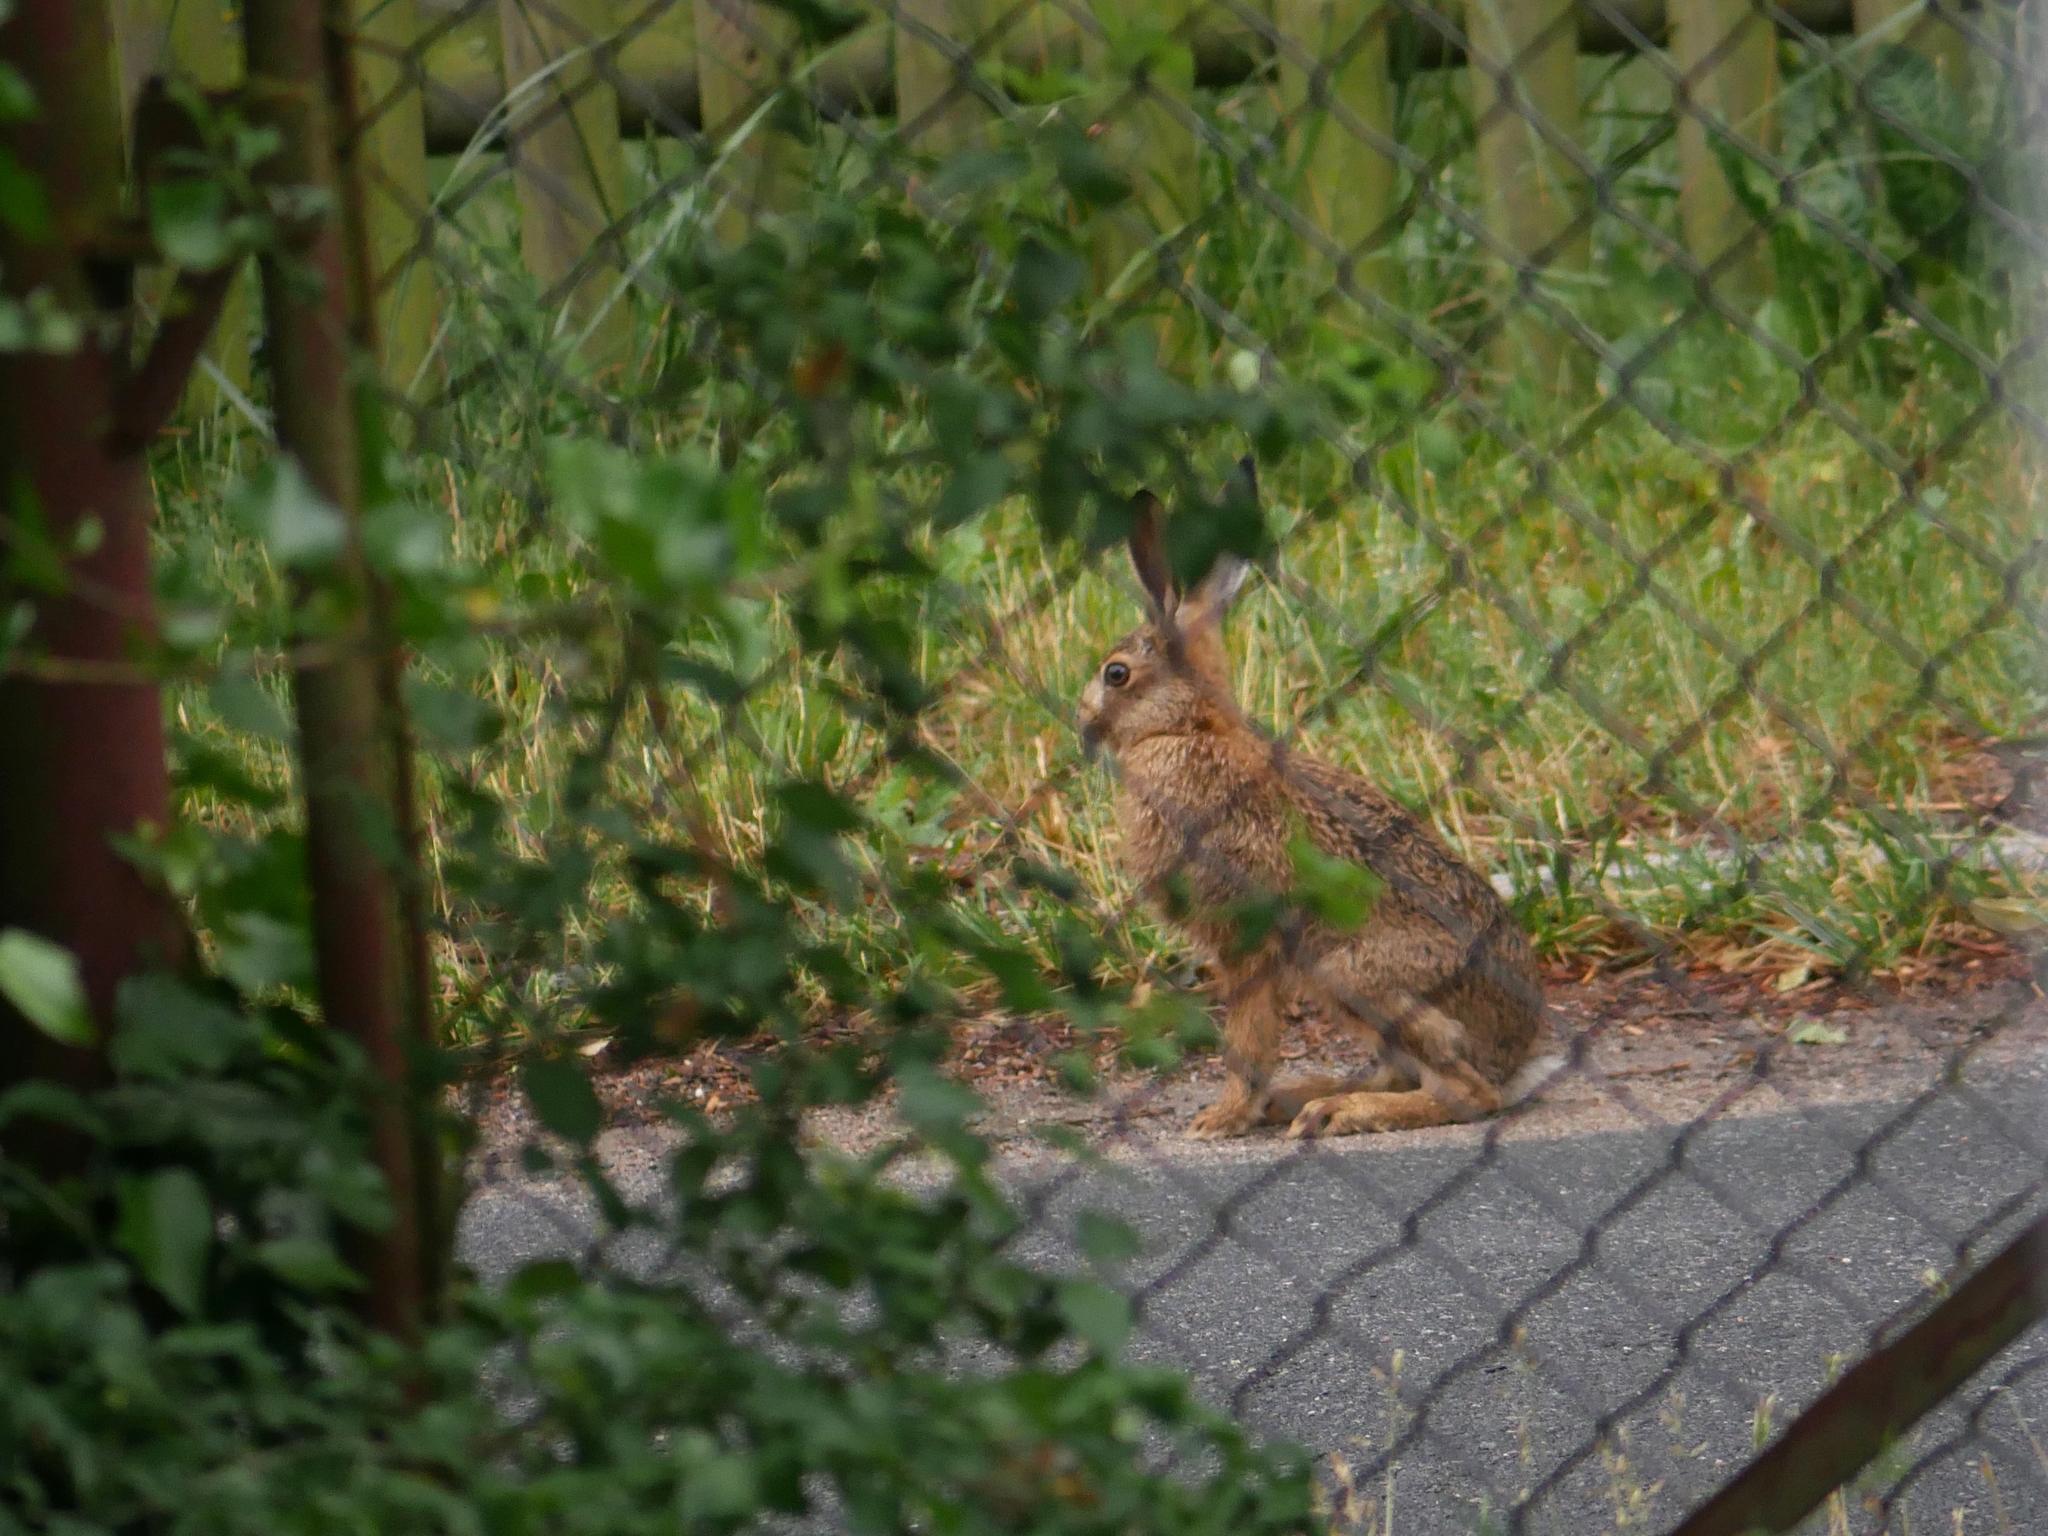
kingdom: Animalia
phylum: Chordata
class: Mammalia
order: Lagomorpha
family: Leporidae
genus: Lepus
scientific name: Lepus europaeus
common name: European hare
